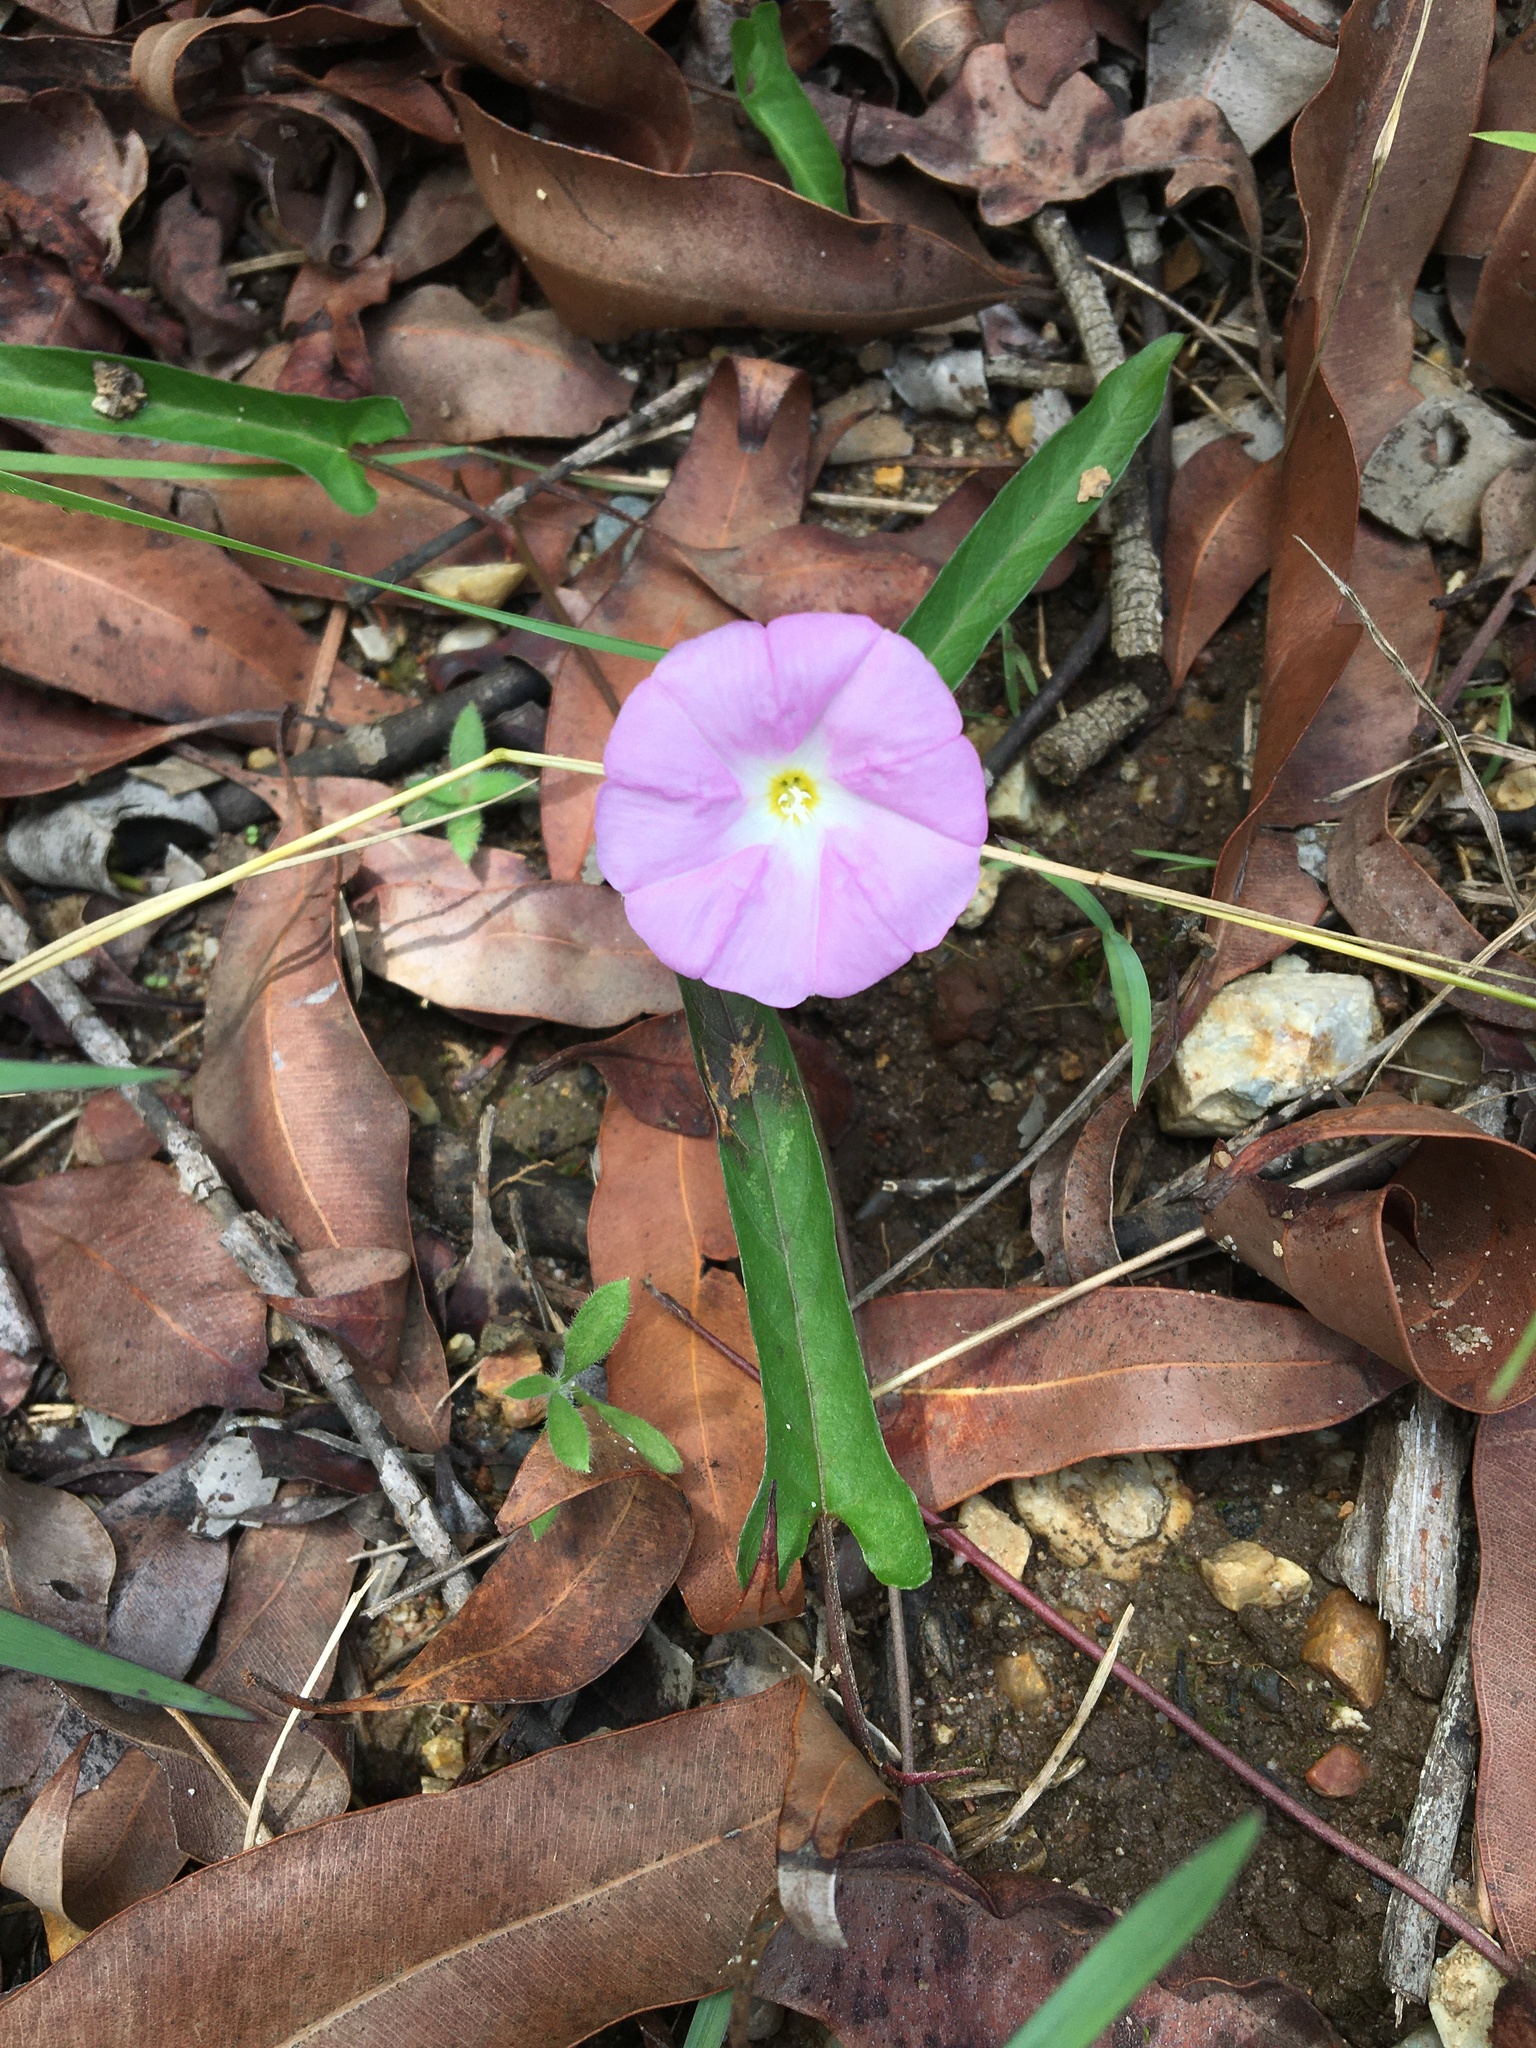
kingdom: Plantae
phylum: Tracheophyta
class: Magnoliopsida
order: Solanales
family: Convolvulaceae
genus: Polymeria
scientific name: Polymeria calycina
